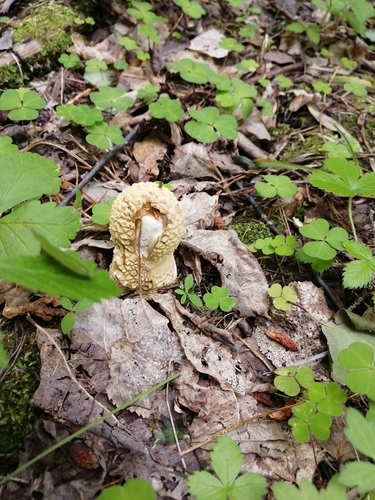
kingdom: Fungi
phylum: Basidiomycota
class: Agaricomycetes
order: Agaricales
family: Amanitaceae
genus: Amanita
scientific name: Amanita regalis
